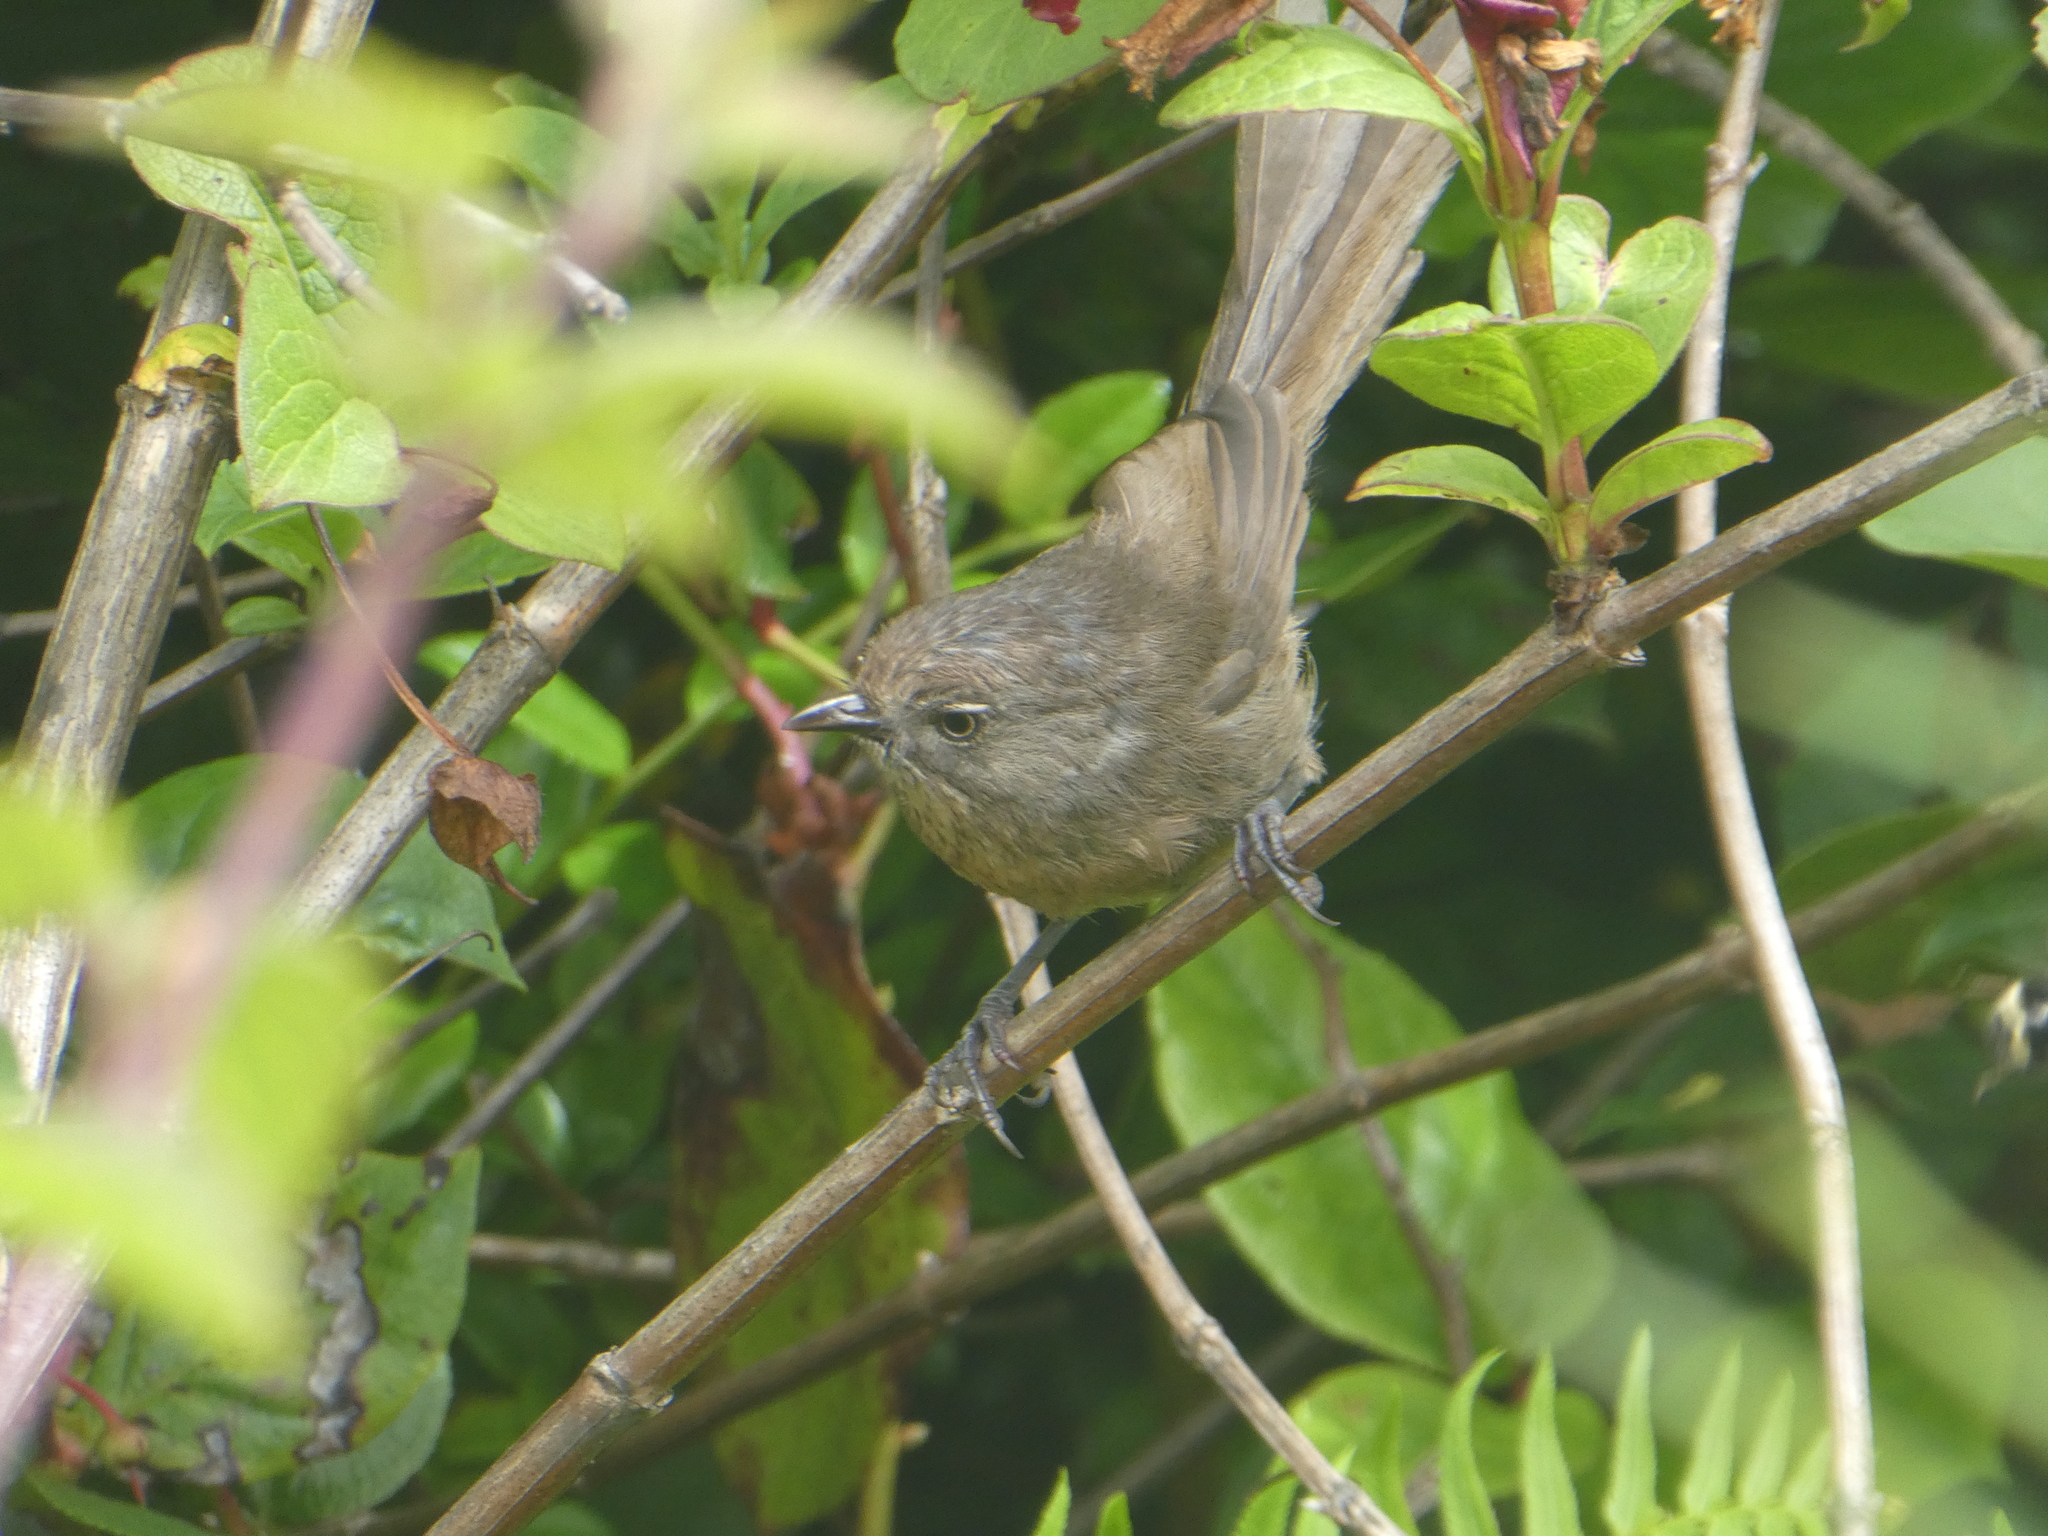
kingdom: Animalia
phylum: Chordata
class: Aves
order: Passeriformes
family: Sylviidae
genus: Chamaea
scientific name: Chamaea fasciata
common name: Wrentit
